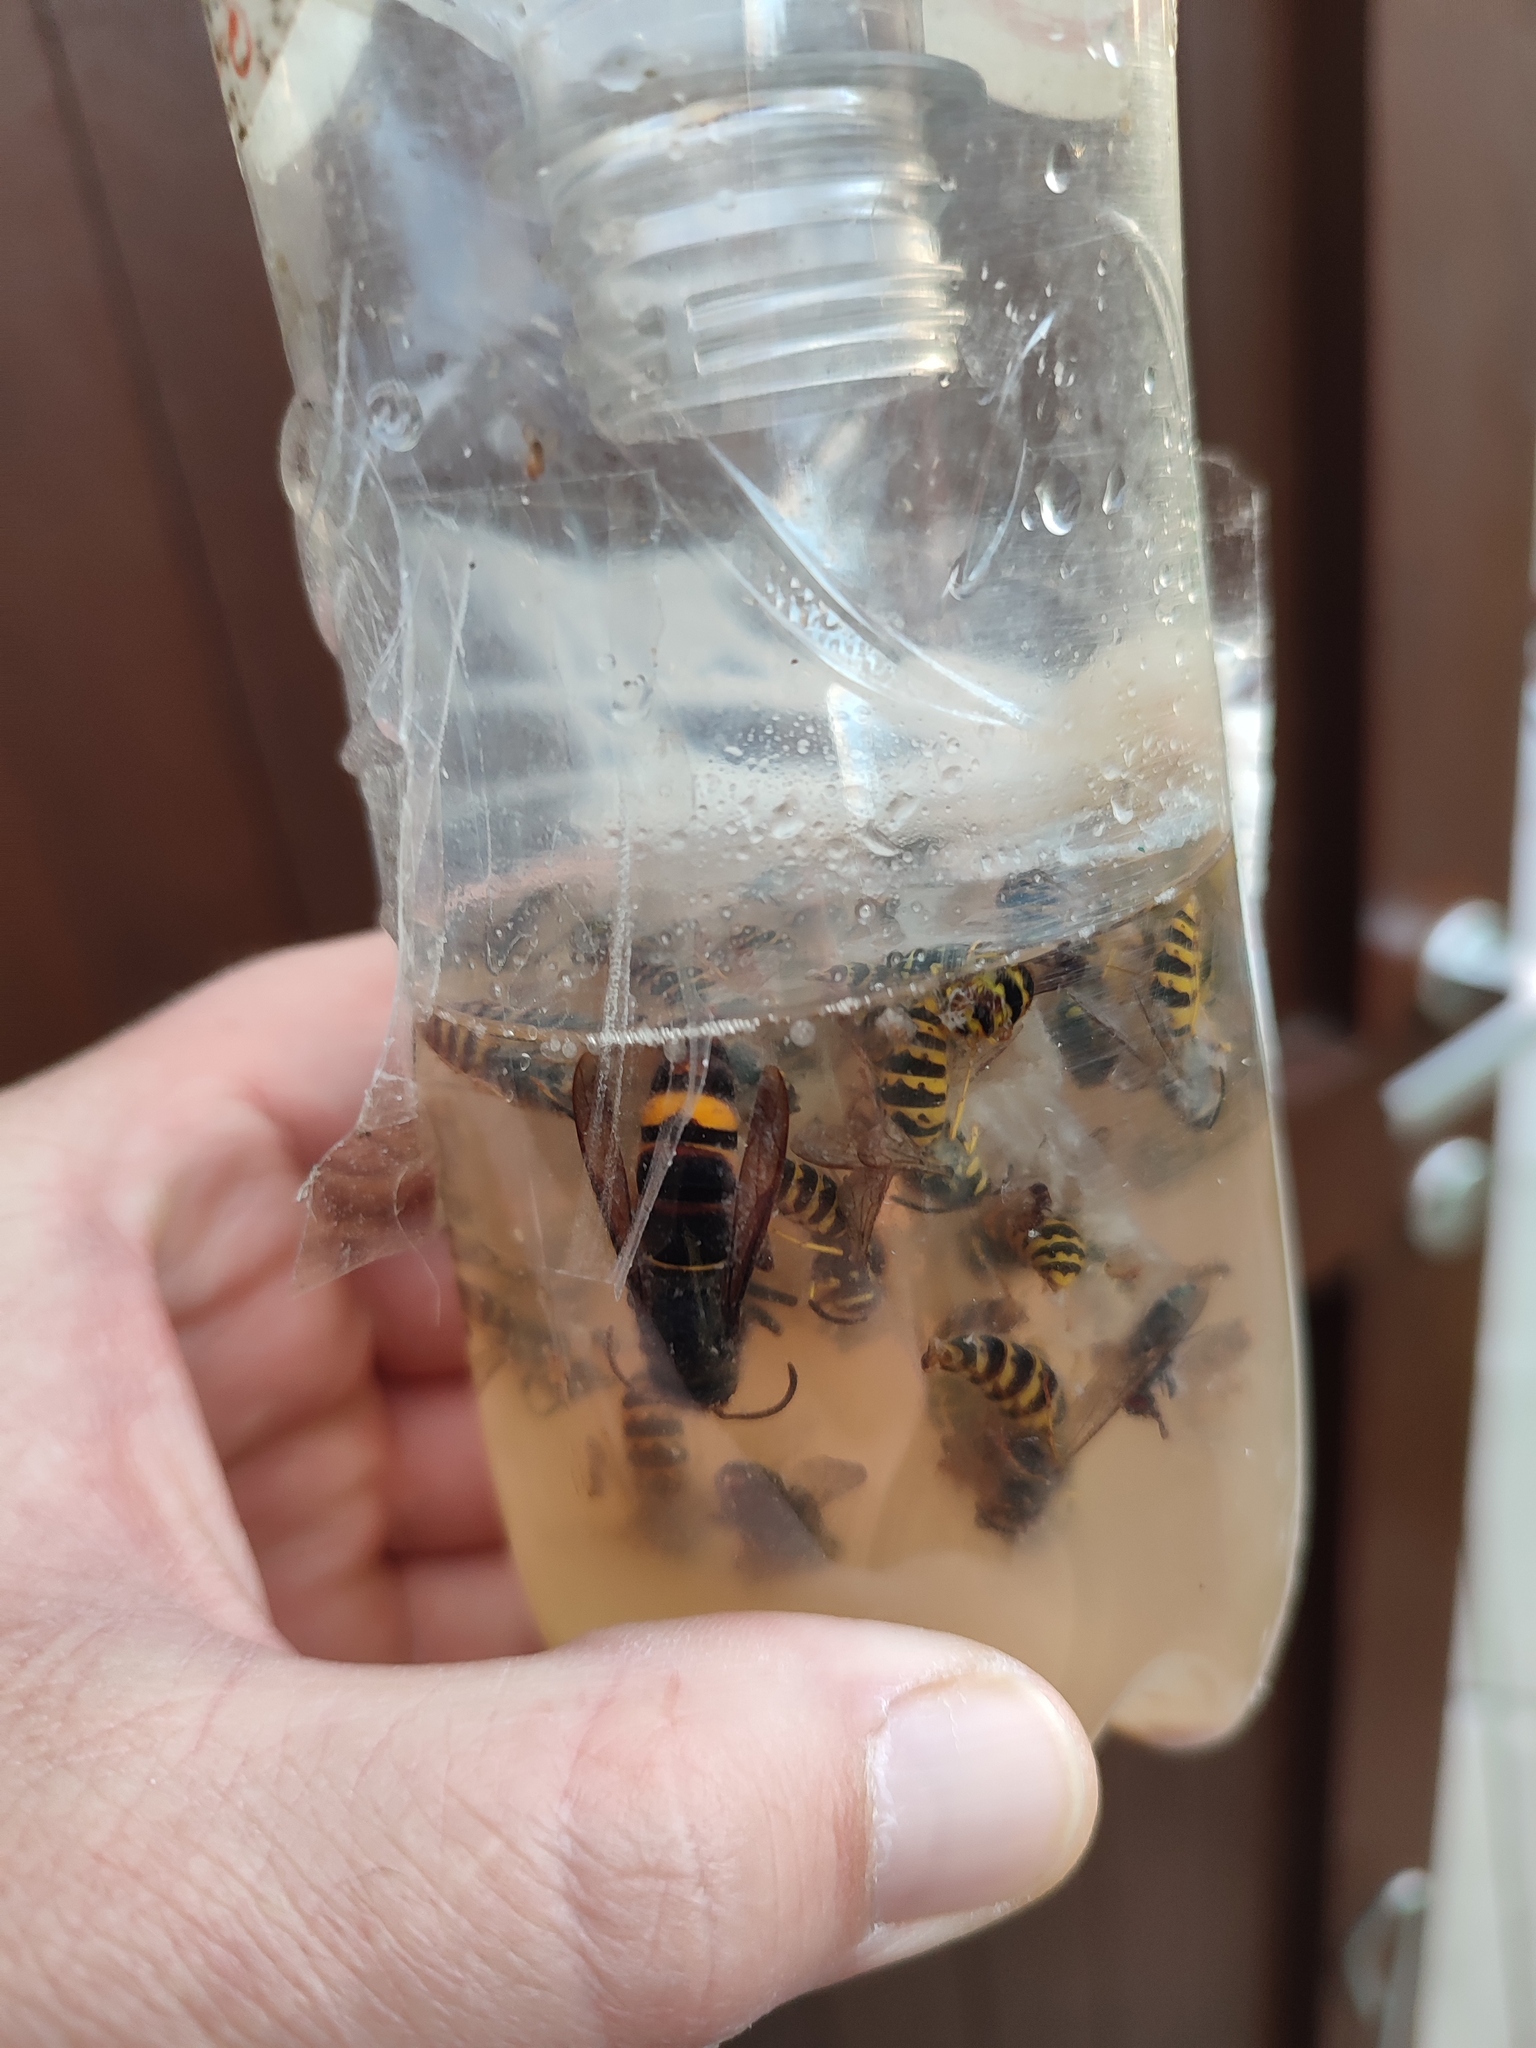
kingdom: Animalia
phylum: Arthropoda
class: Insecta
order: Hymenoptera
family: Vespidae
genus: Vespa
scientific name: Vespa velutina
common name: Asian hornet
